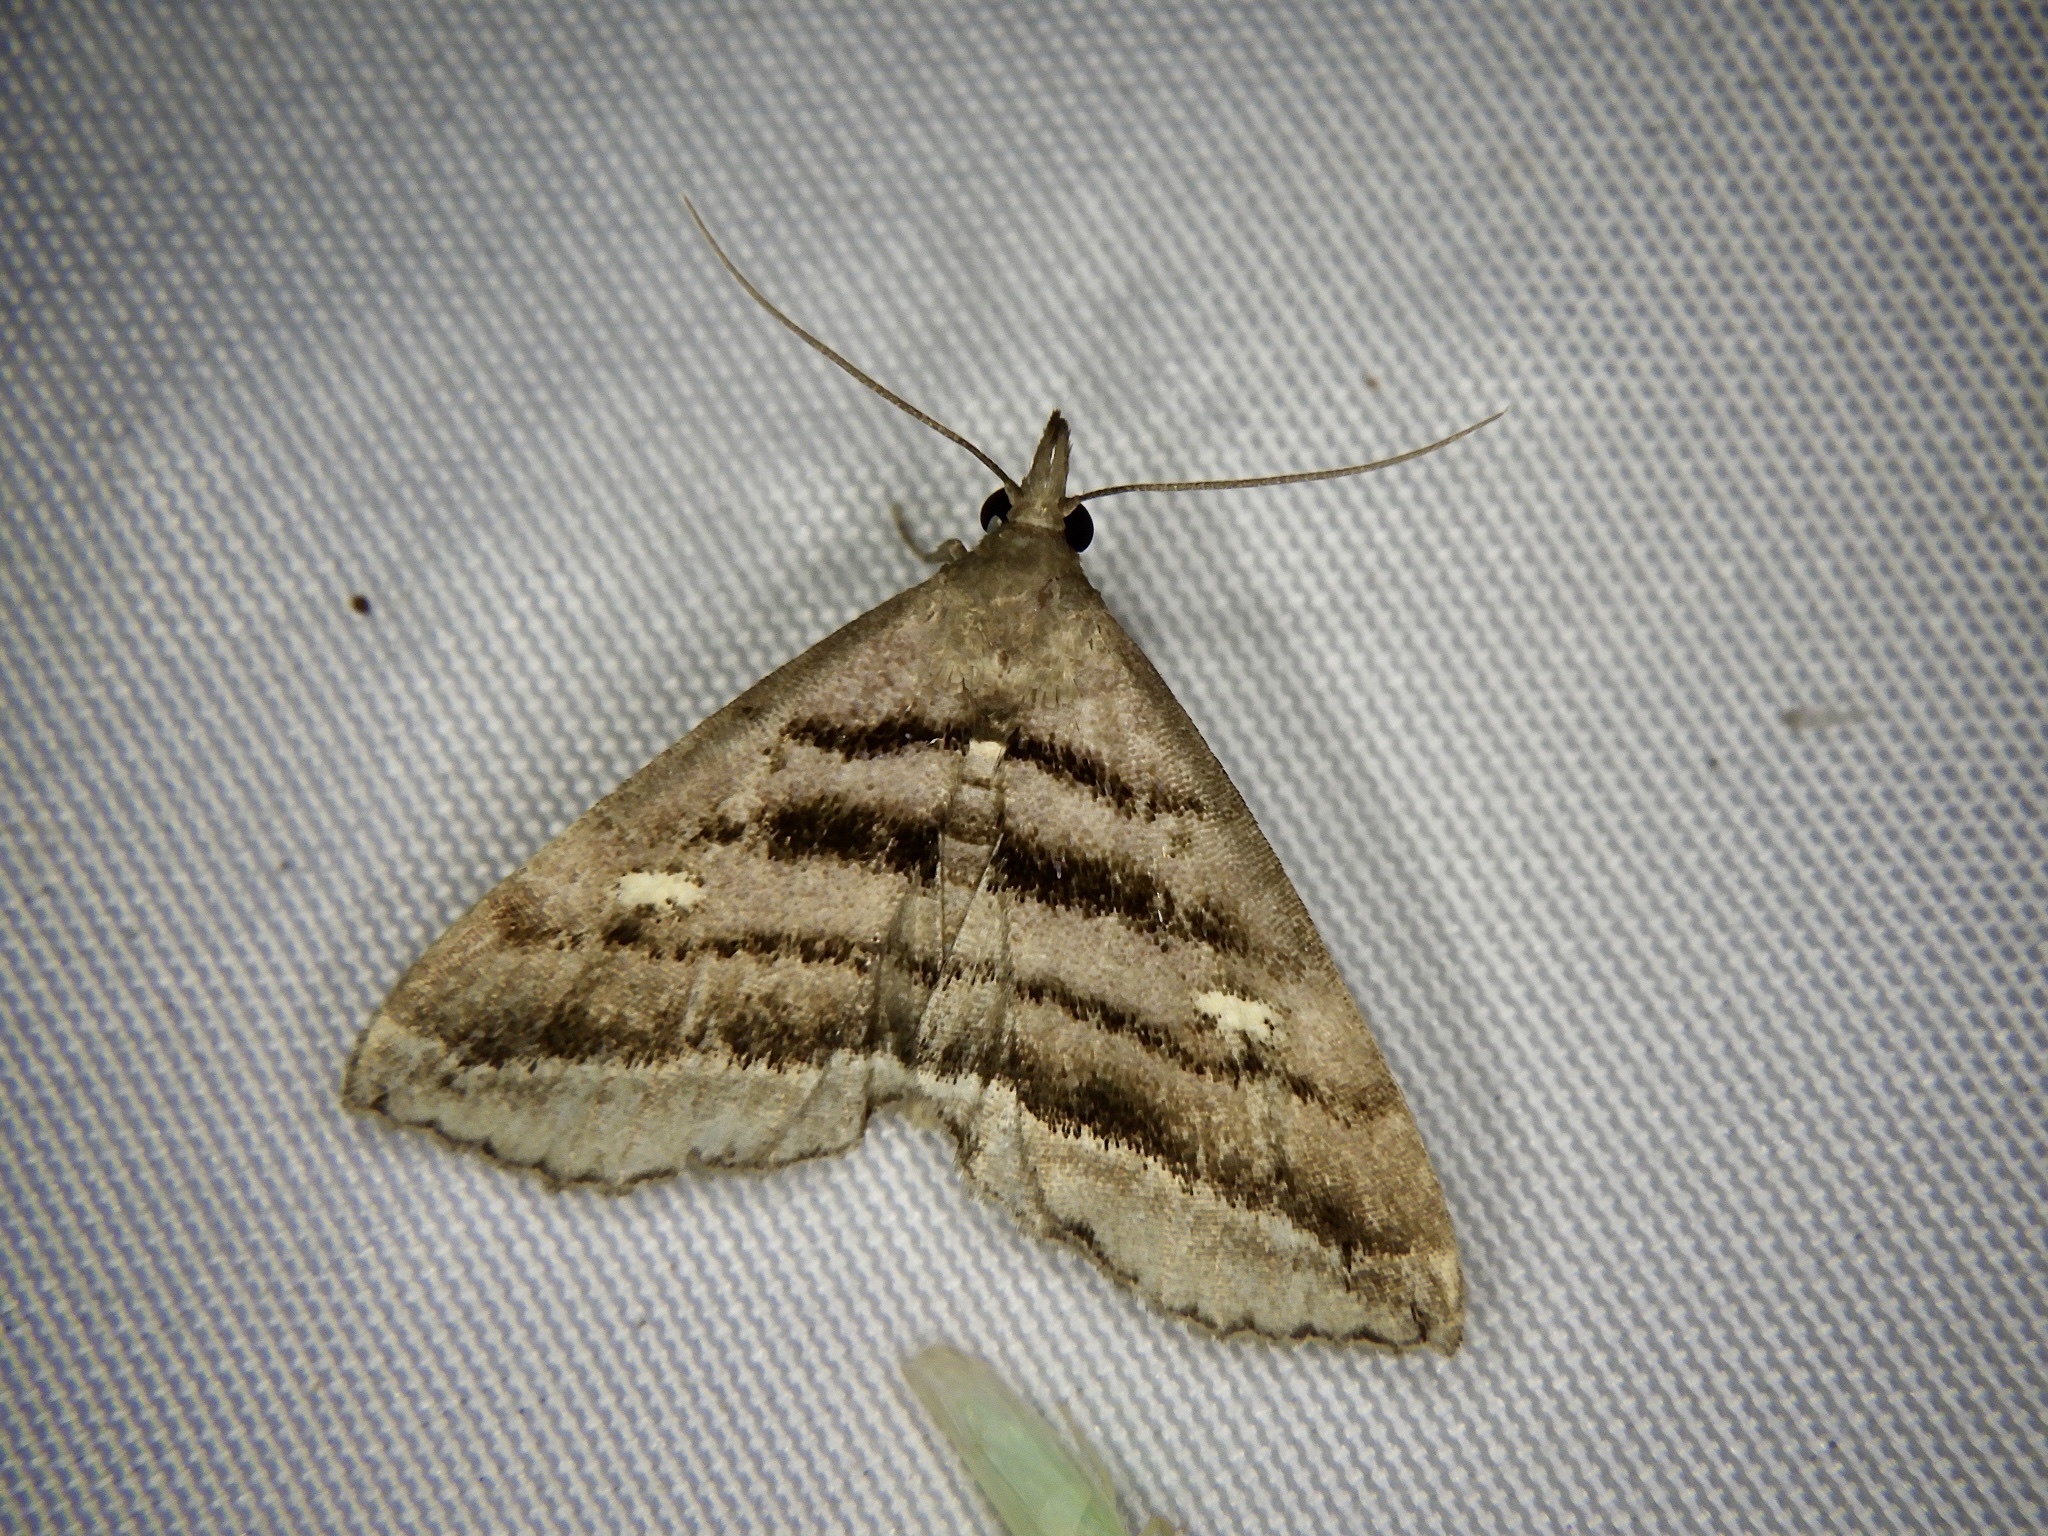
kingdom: Animalia
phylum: Arthropoda
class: Insecta
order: Lepidoptera
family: Erebidae
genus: Paracolax
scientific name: Paracolax pryeri
